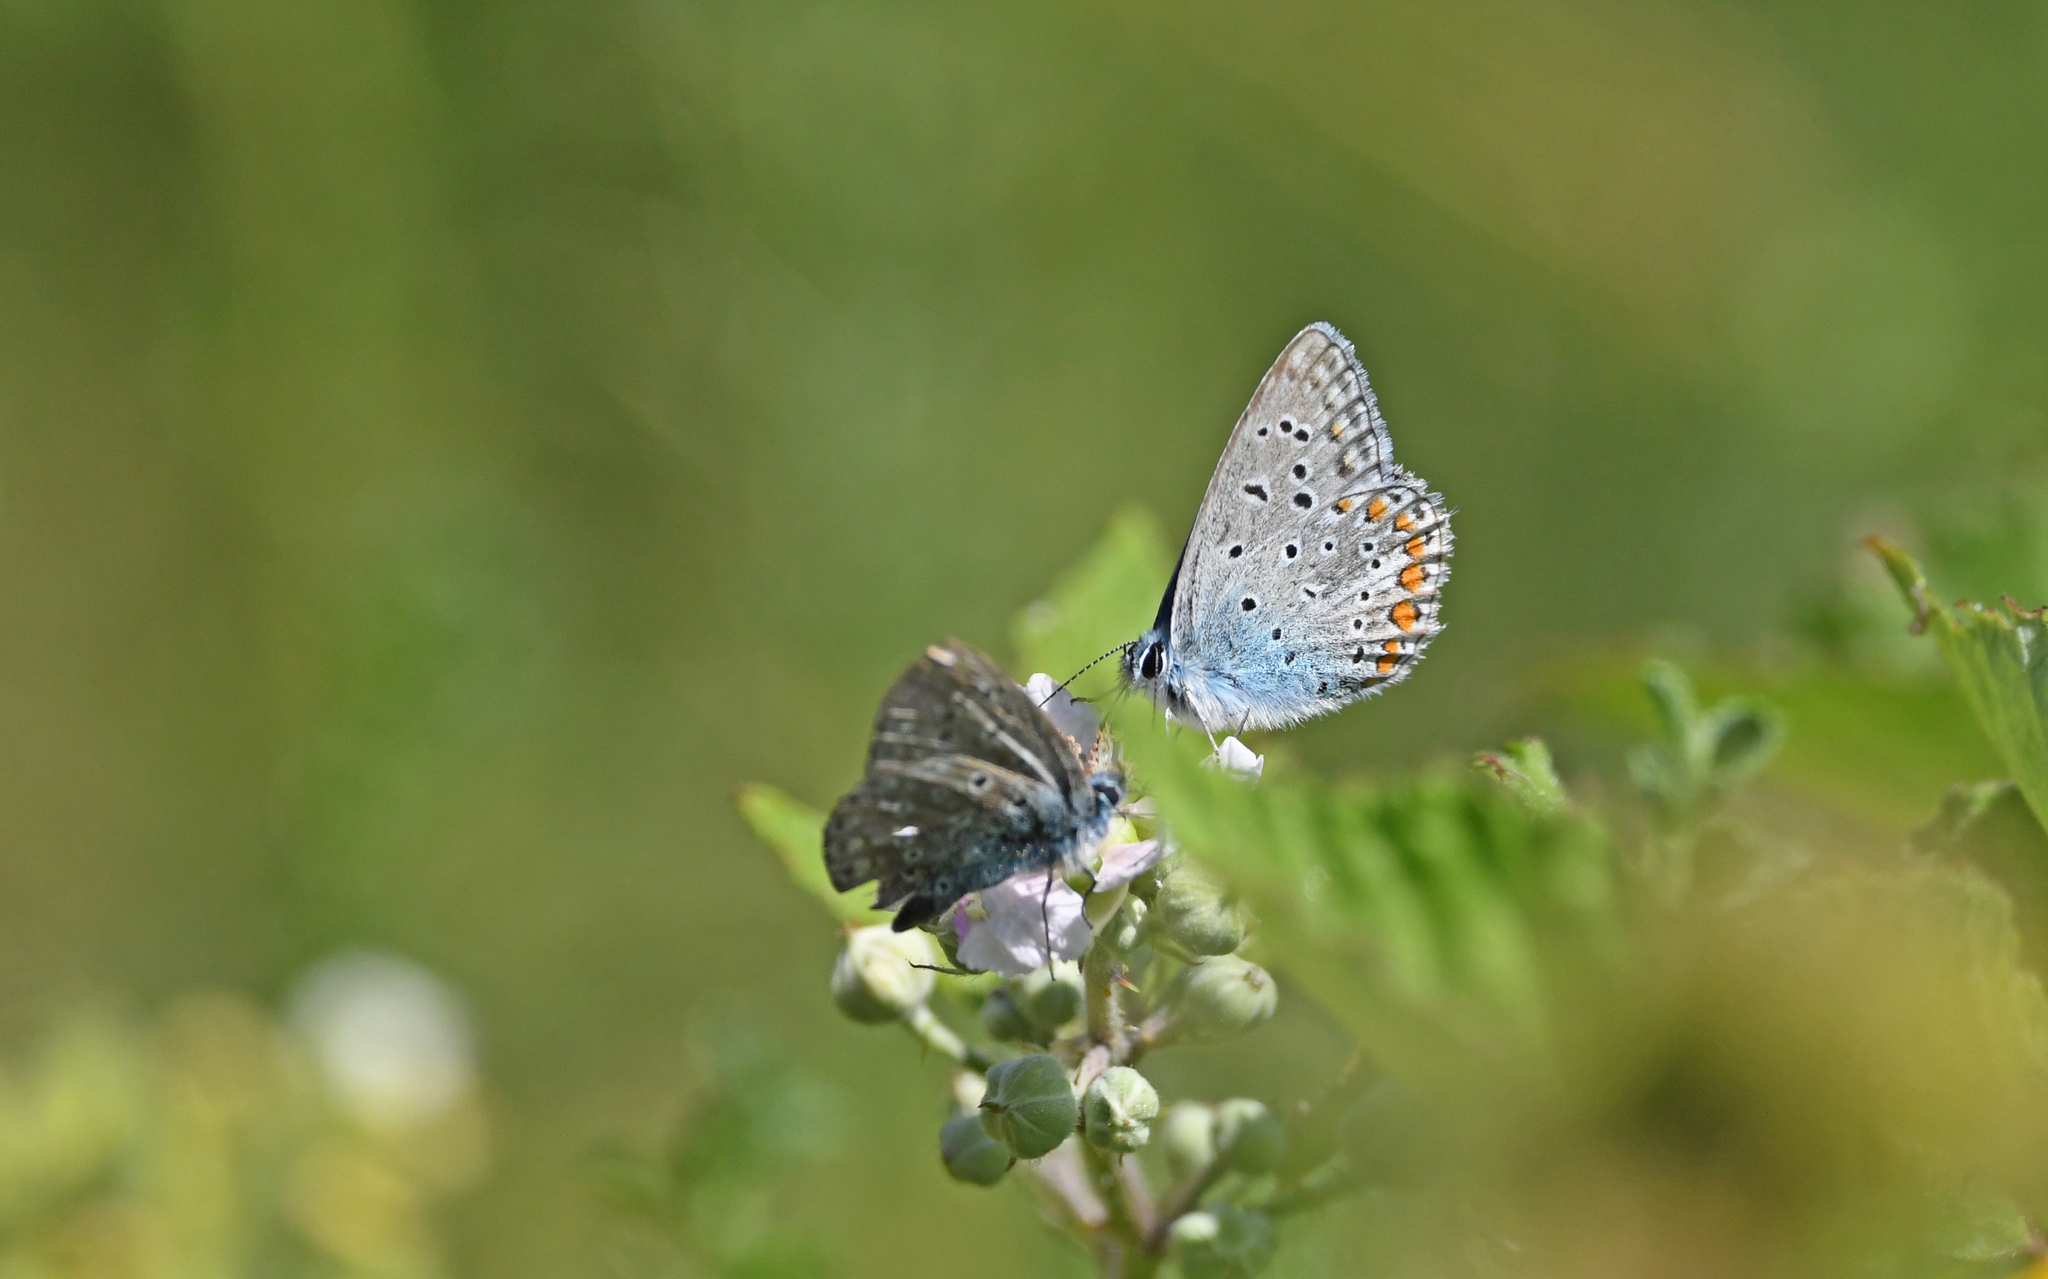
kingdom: Animalia
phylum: Arthropoda
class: Insecta
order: Lepidoptera
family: Lycaenidae
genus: Polyommatus
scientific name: Polyommatus icarus
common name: Common blue
